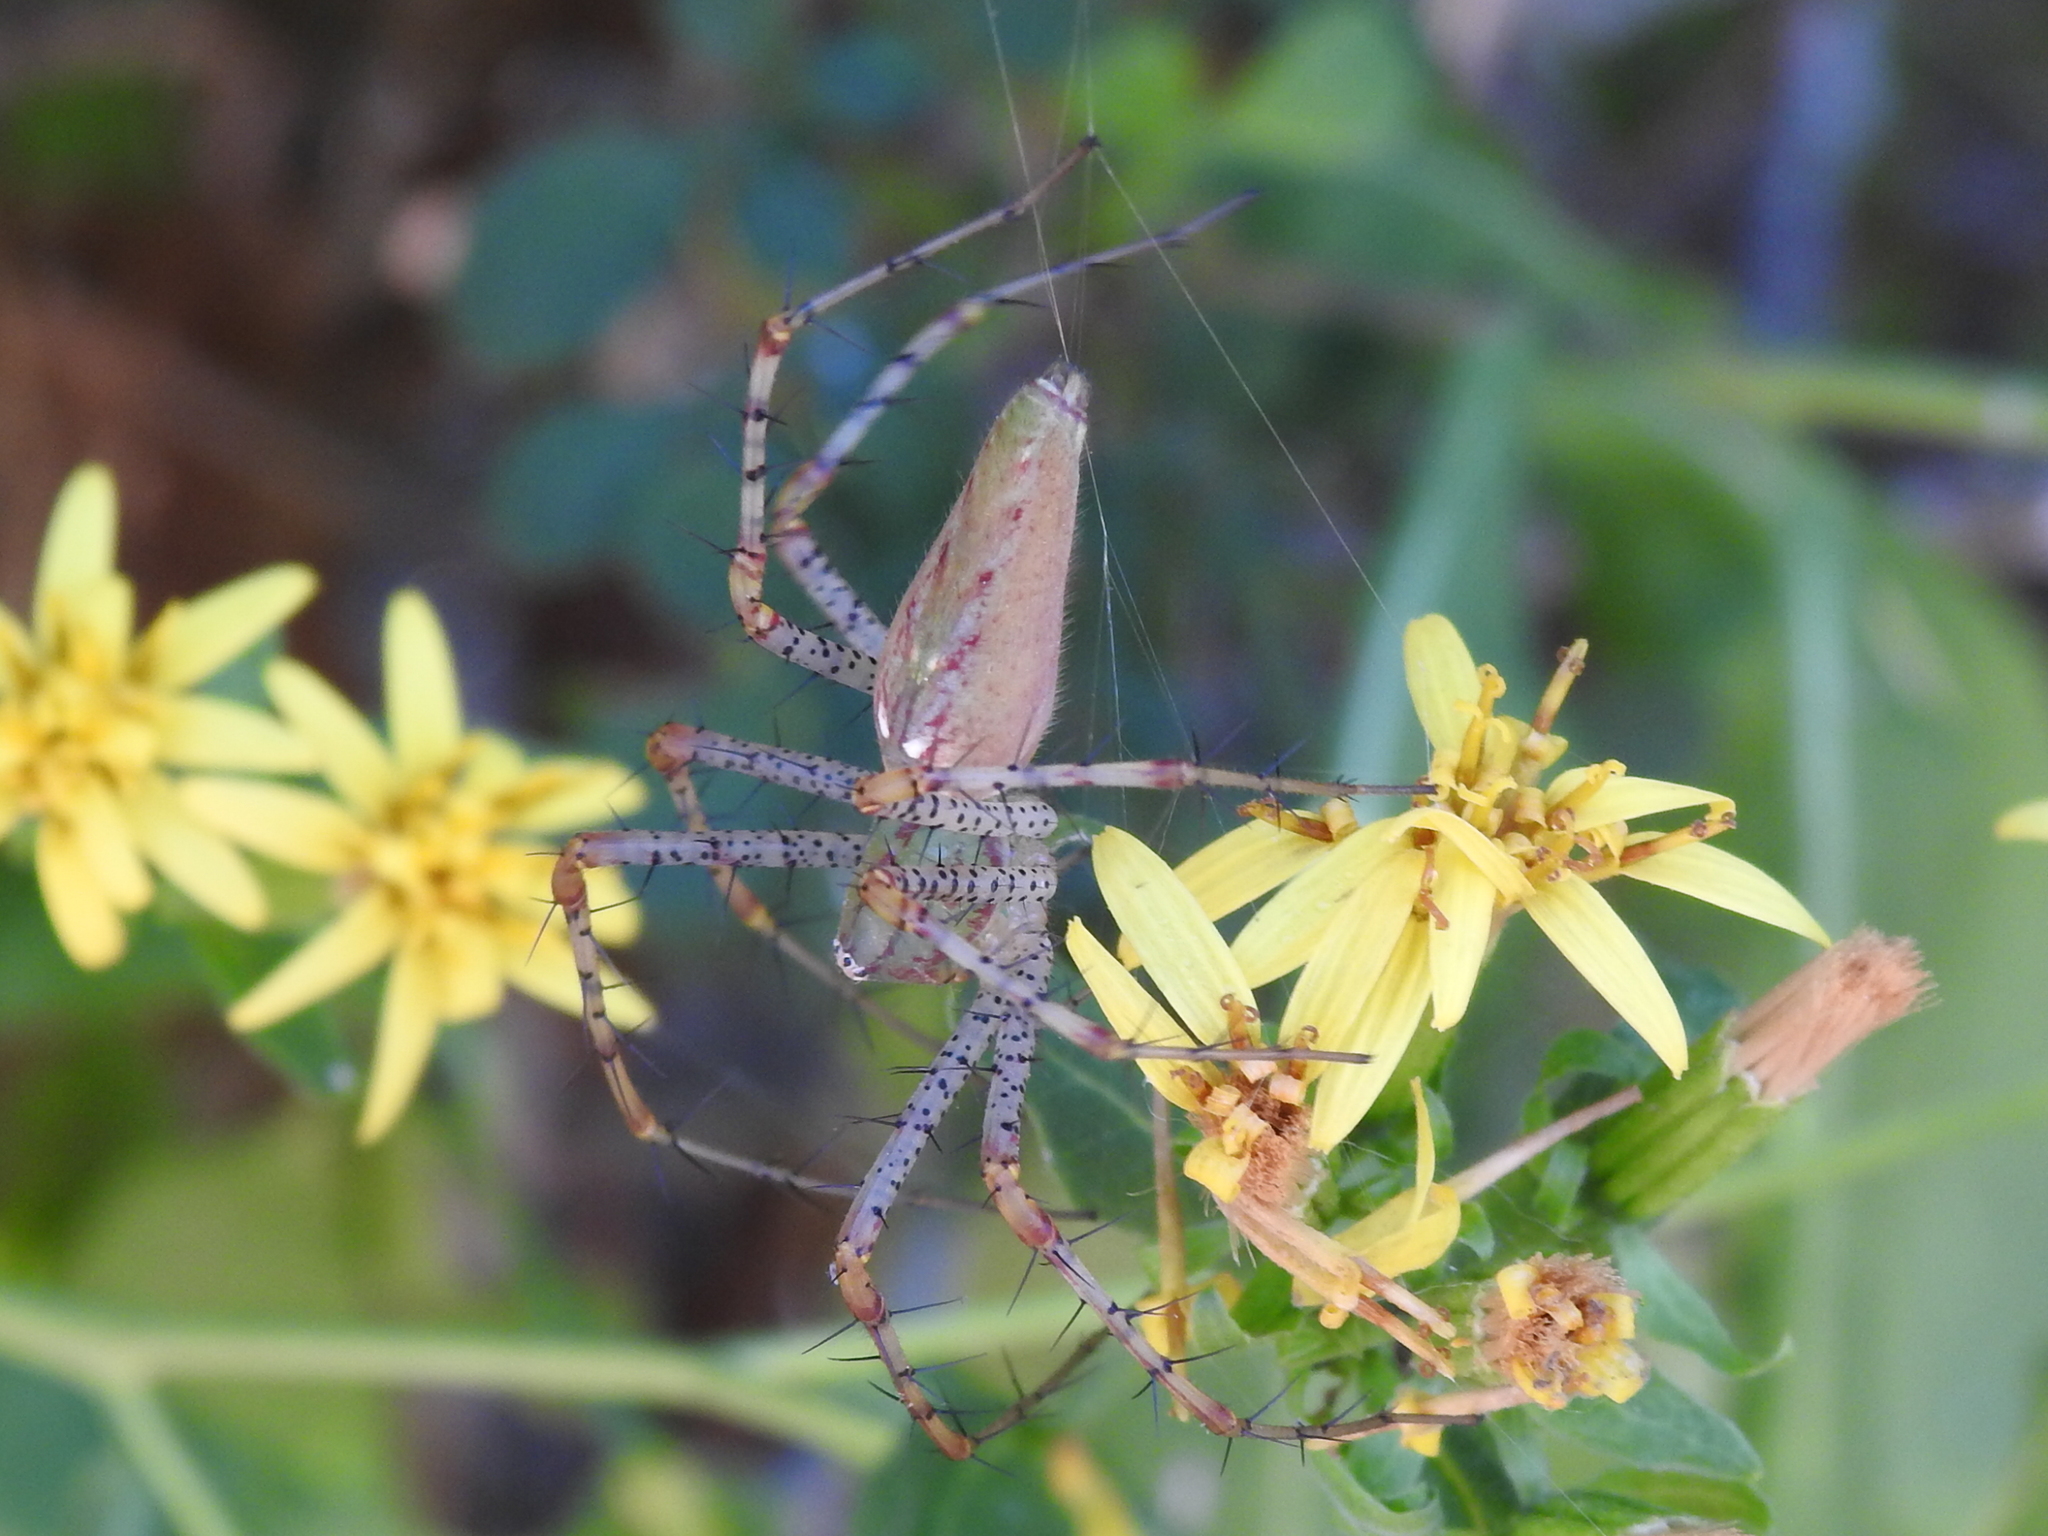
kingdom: Animalia
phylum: Arthropoda
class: Arachnida
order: Araneae
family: Oxyopidae
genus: Peucetia
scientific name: Peucetia viridans
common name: Lynx spiders
